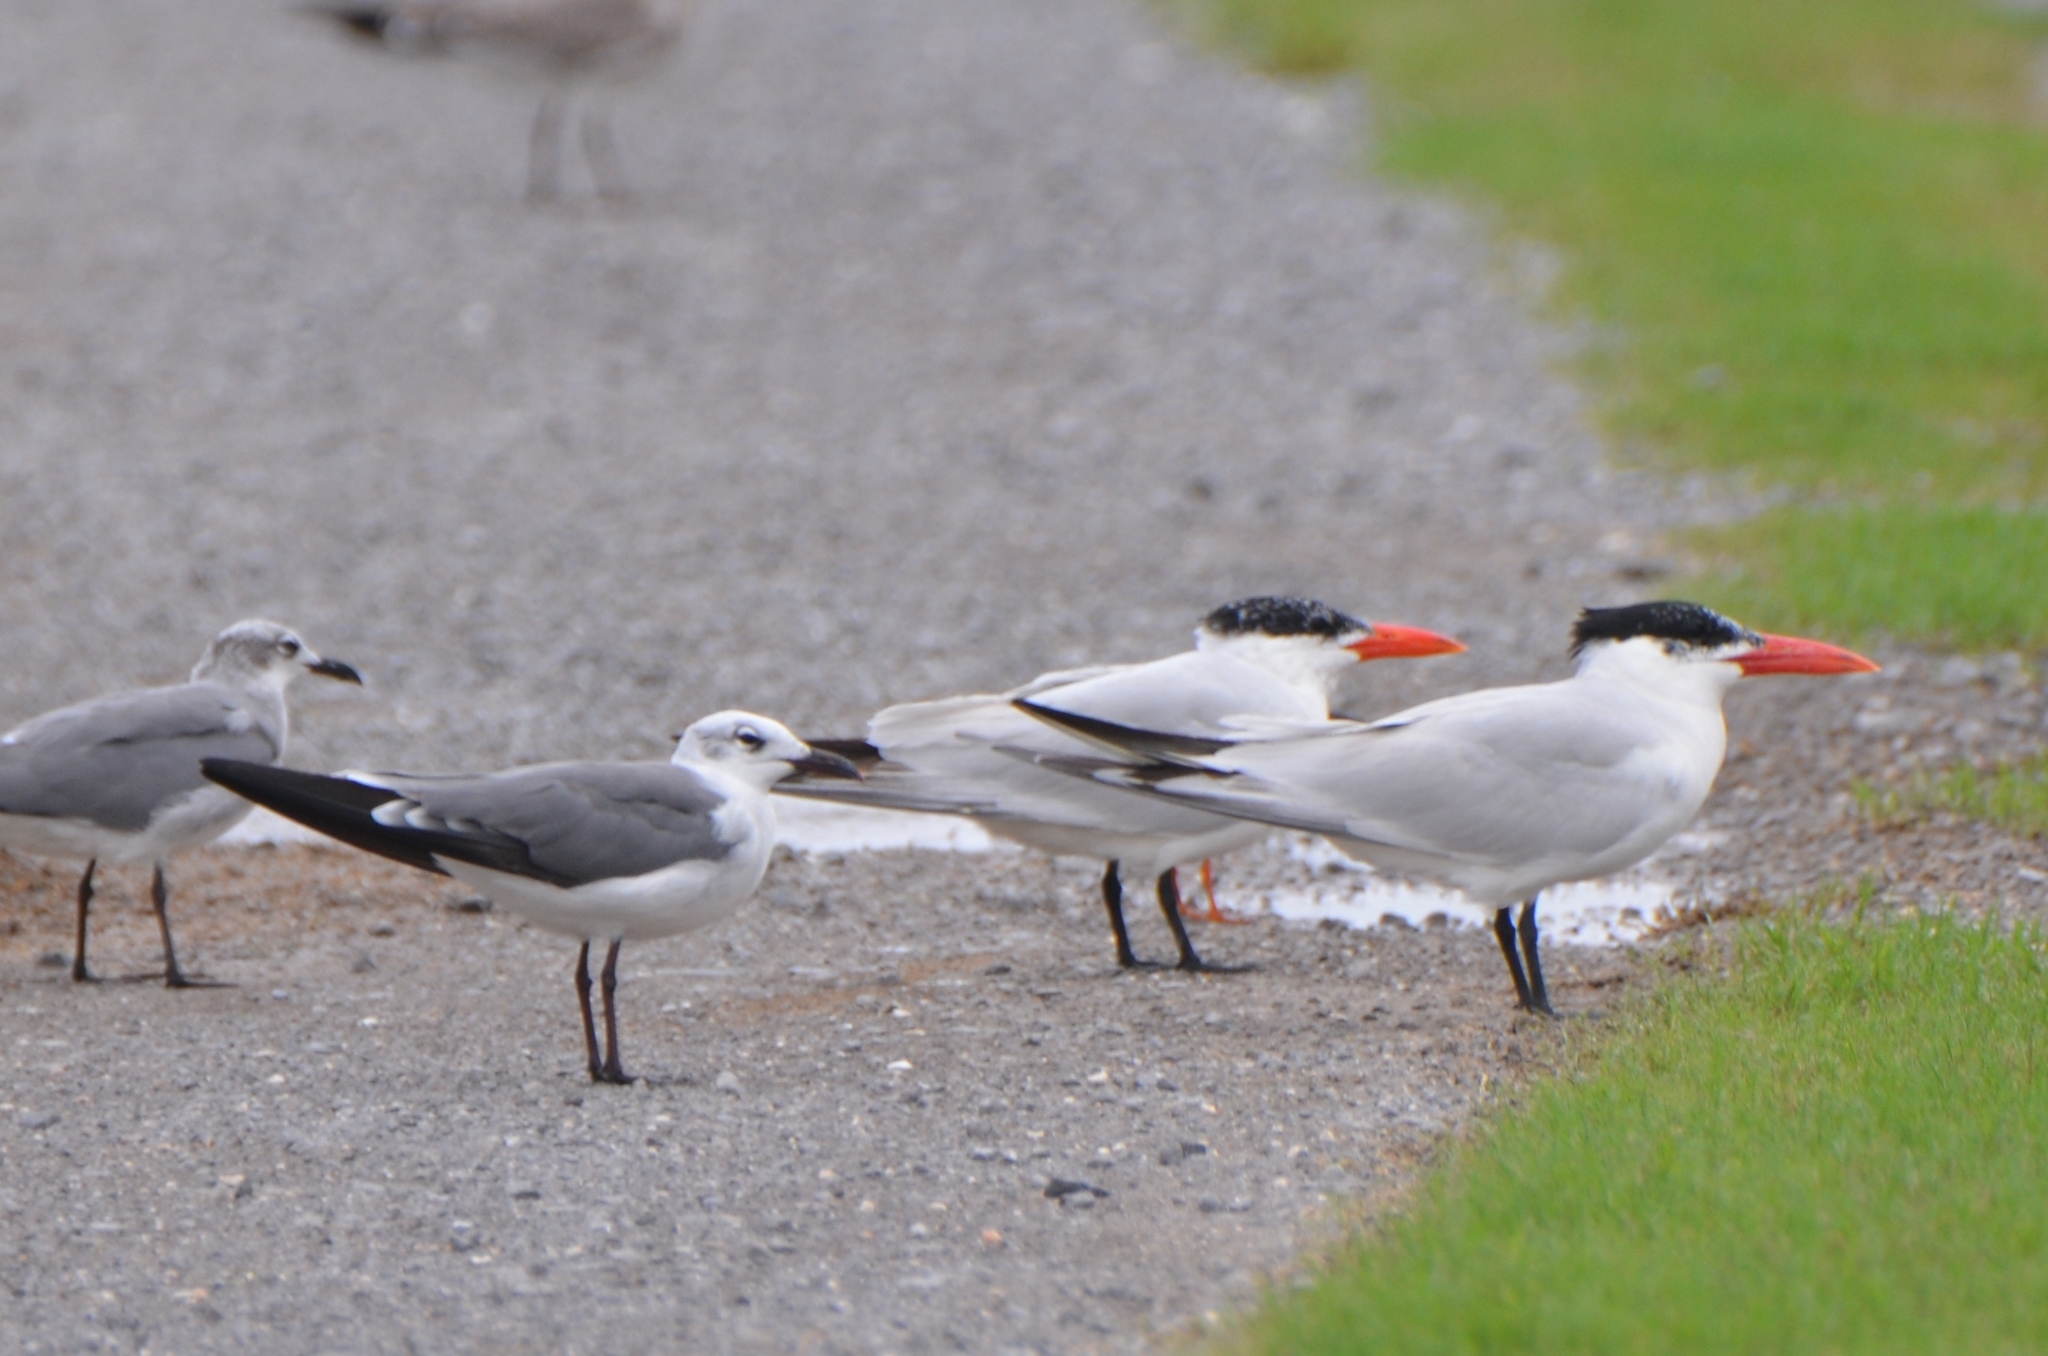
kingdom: Animalia
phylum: Chordata
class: Aves
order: Charadriiformes
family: Laridae
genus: Hydroprogne
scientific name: Hydroprogne caspia
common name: Caspian tern
